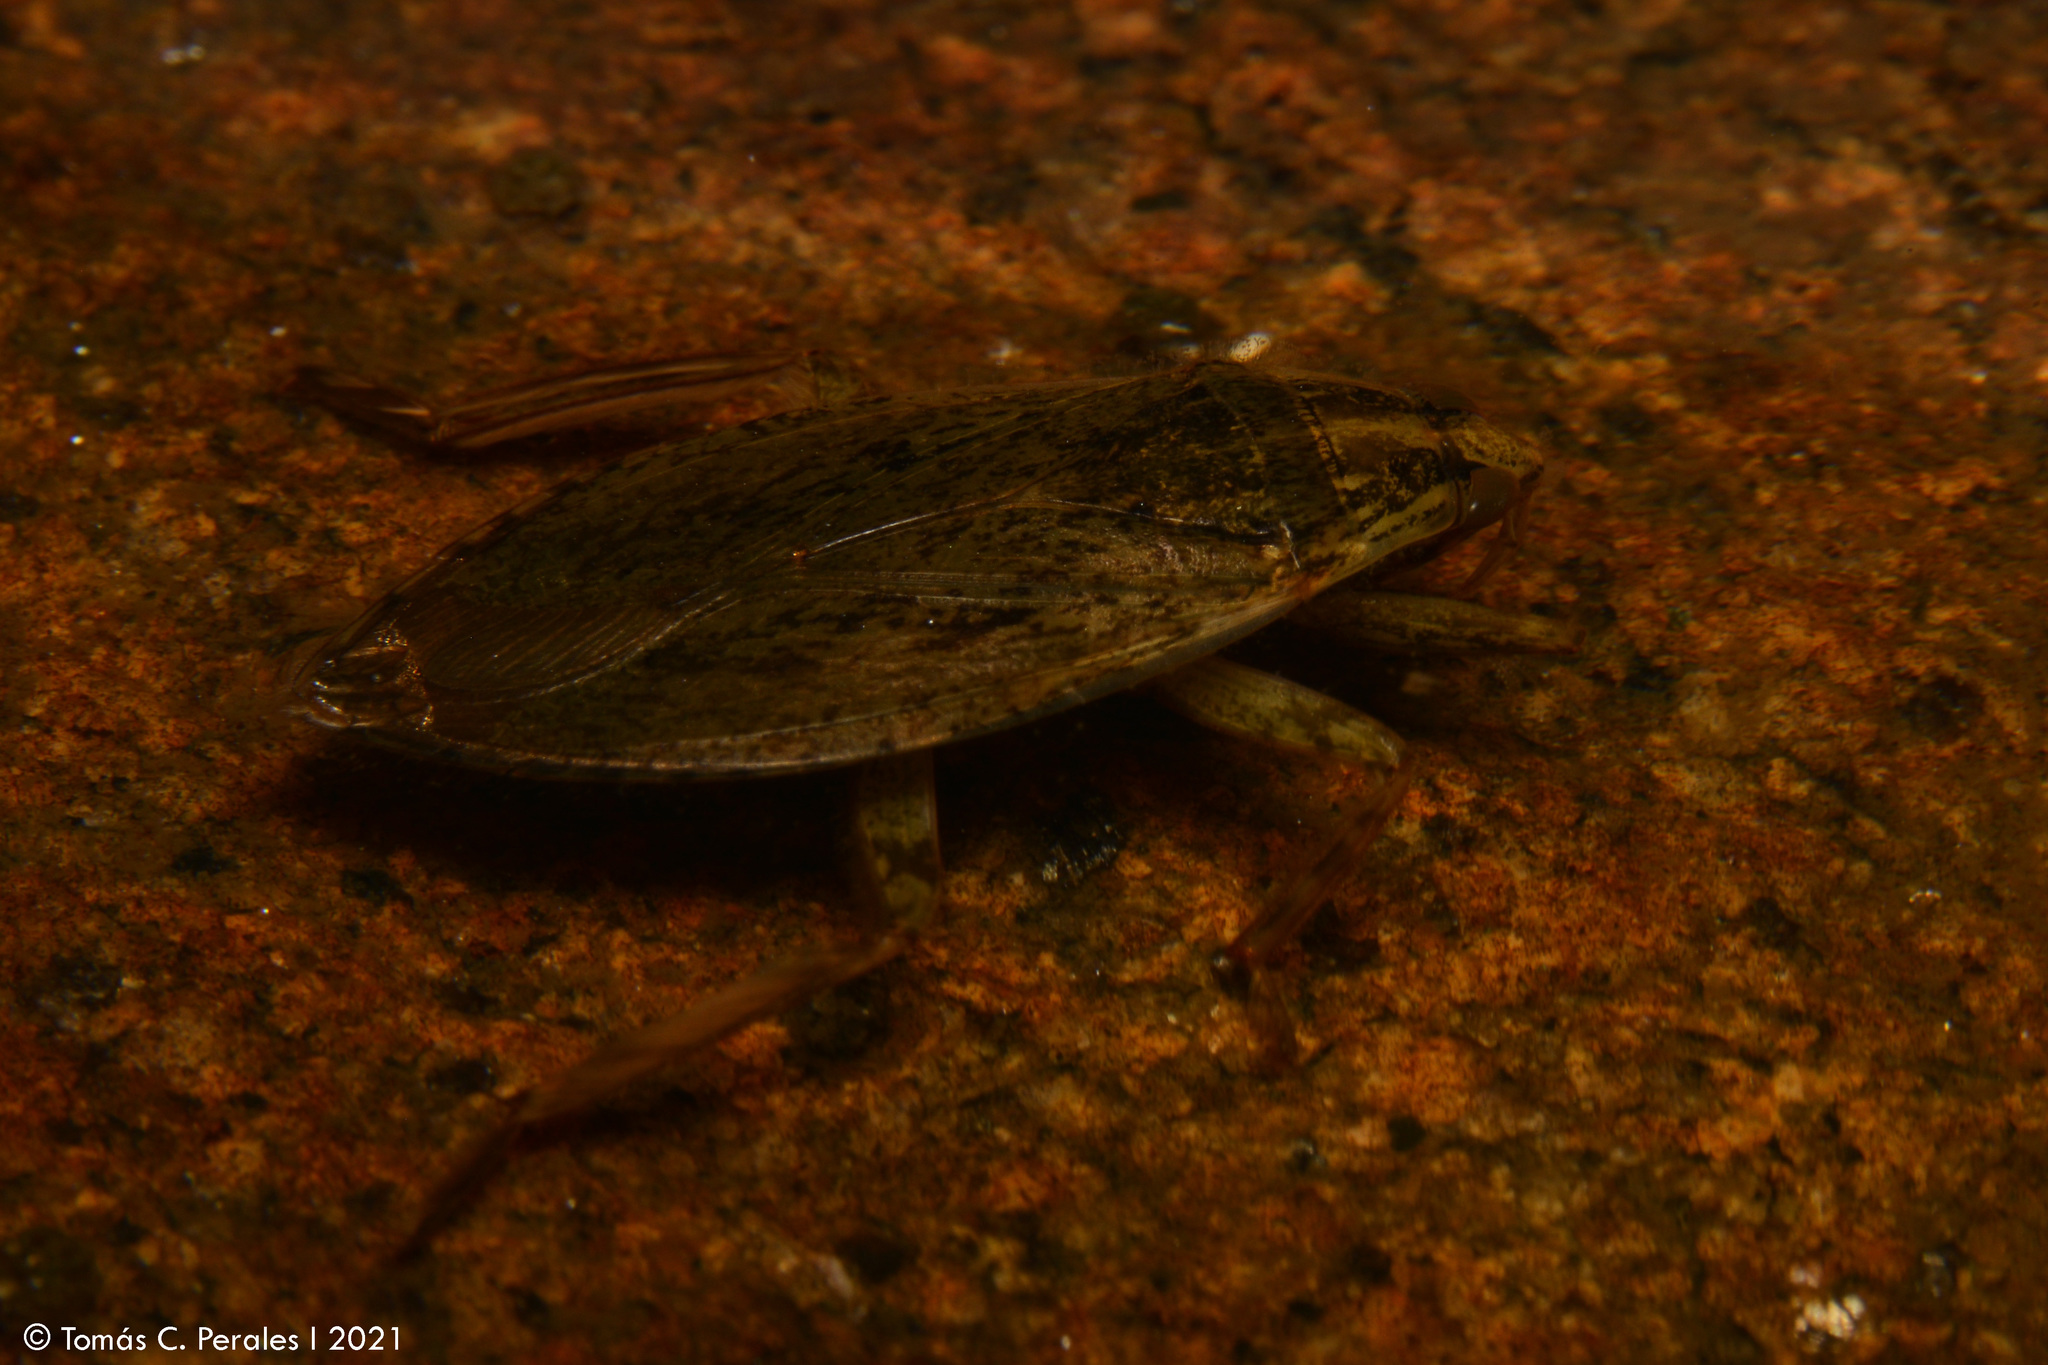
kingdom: Animalia
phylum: Arthropoda
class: Insecta
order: Hemiptera
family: Belostomatidae
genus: Belostoma
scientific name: Belostoma
